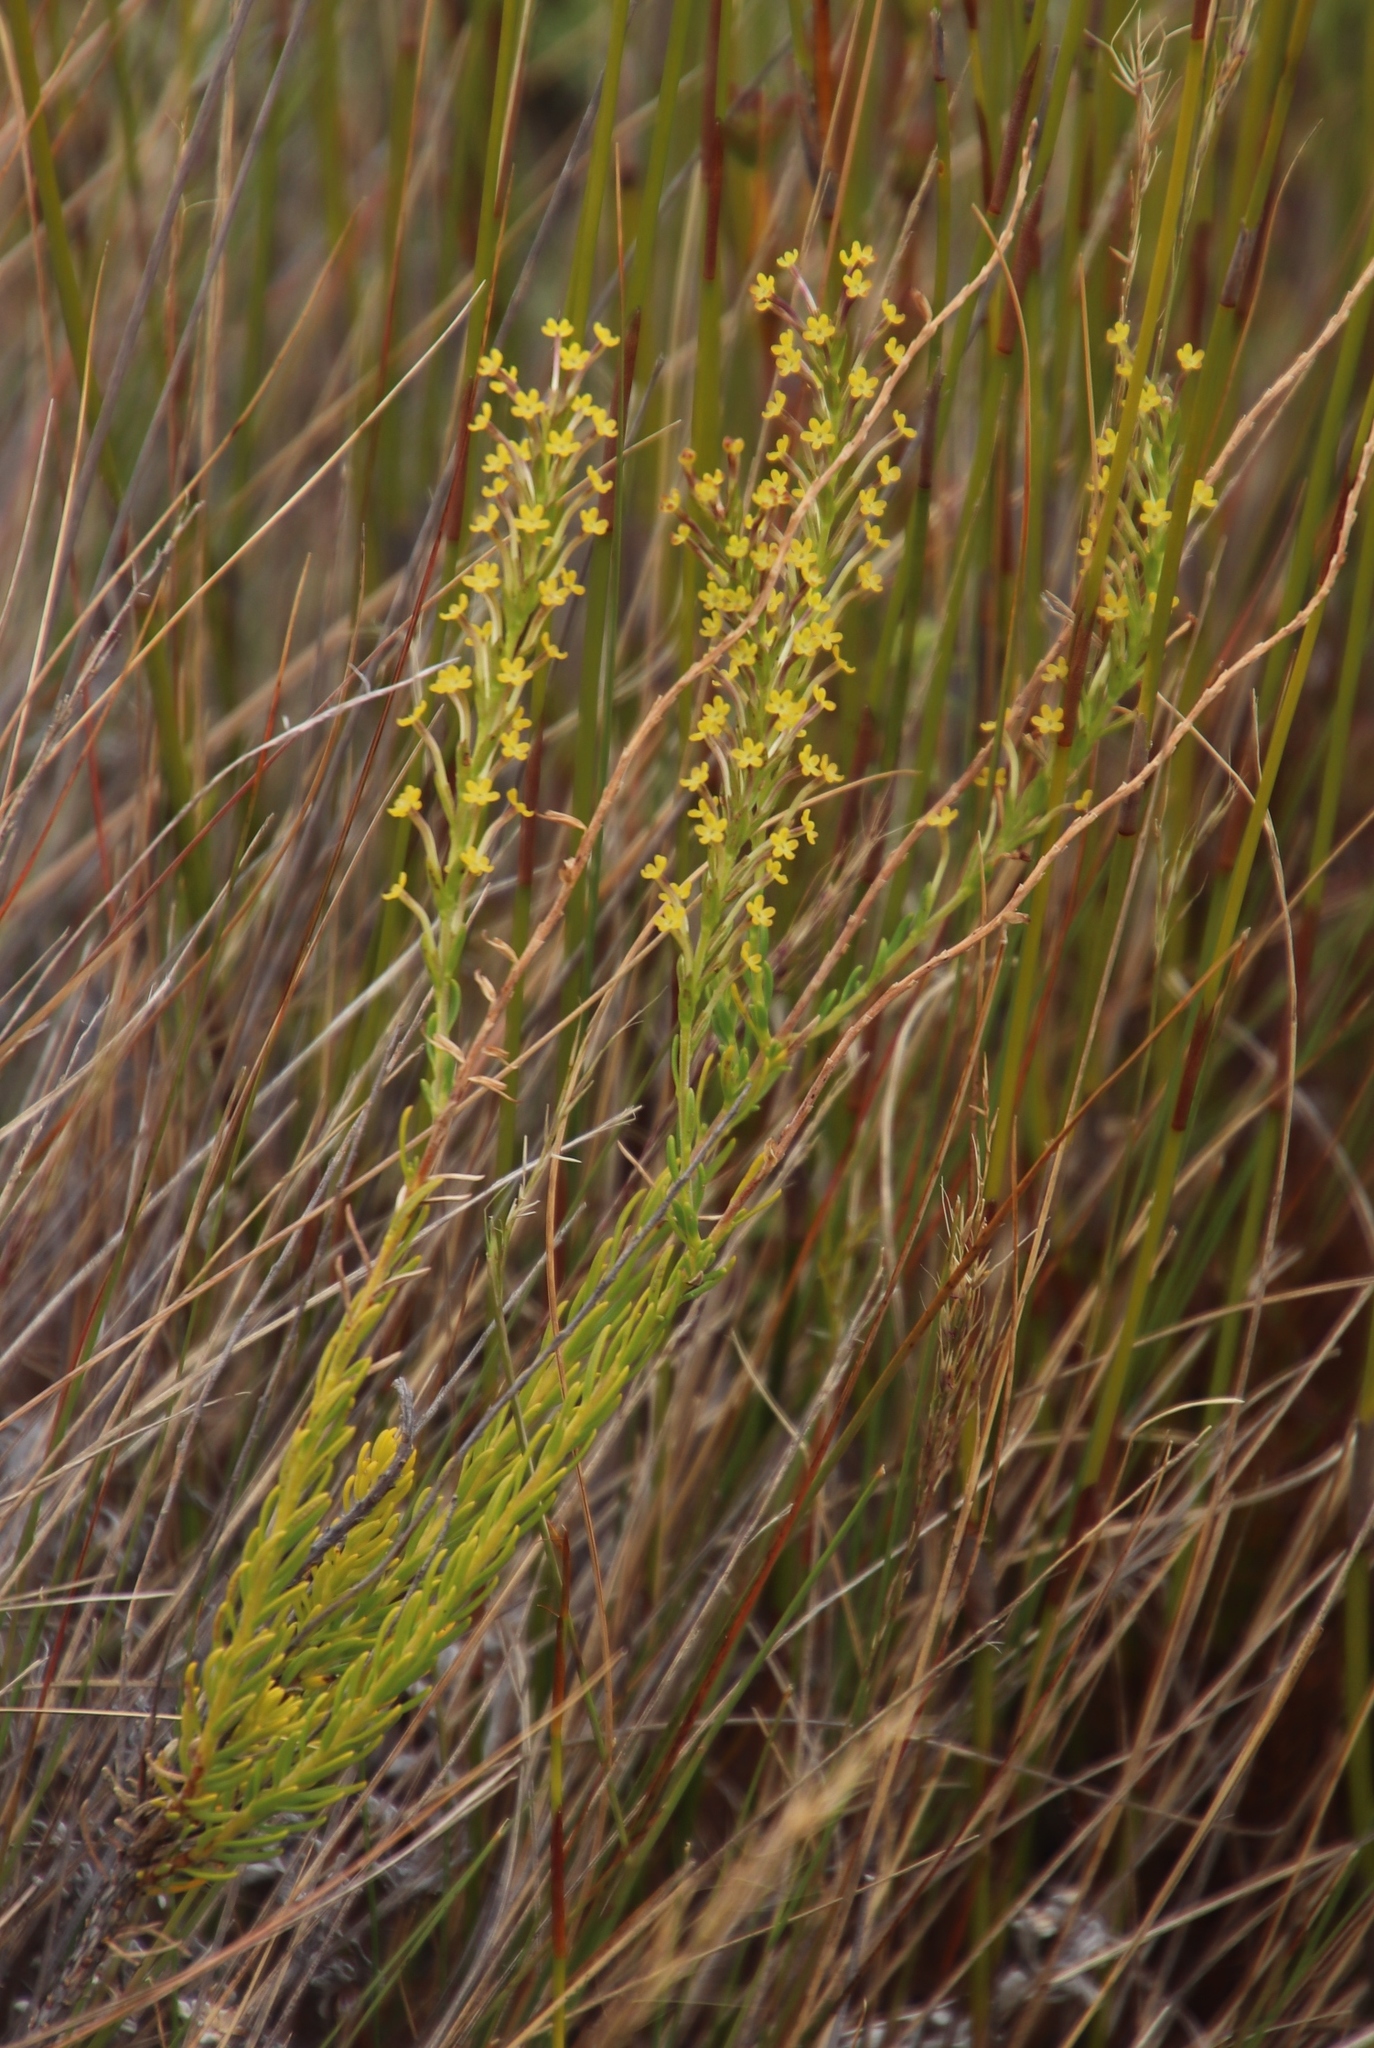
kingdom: Plantae
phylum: Tracheophyta
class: Magnoliopsida
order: Lamiales
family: Scrophulariaceae
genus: Microdon
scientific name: Microdon dubius
